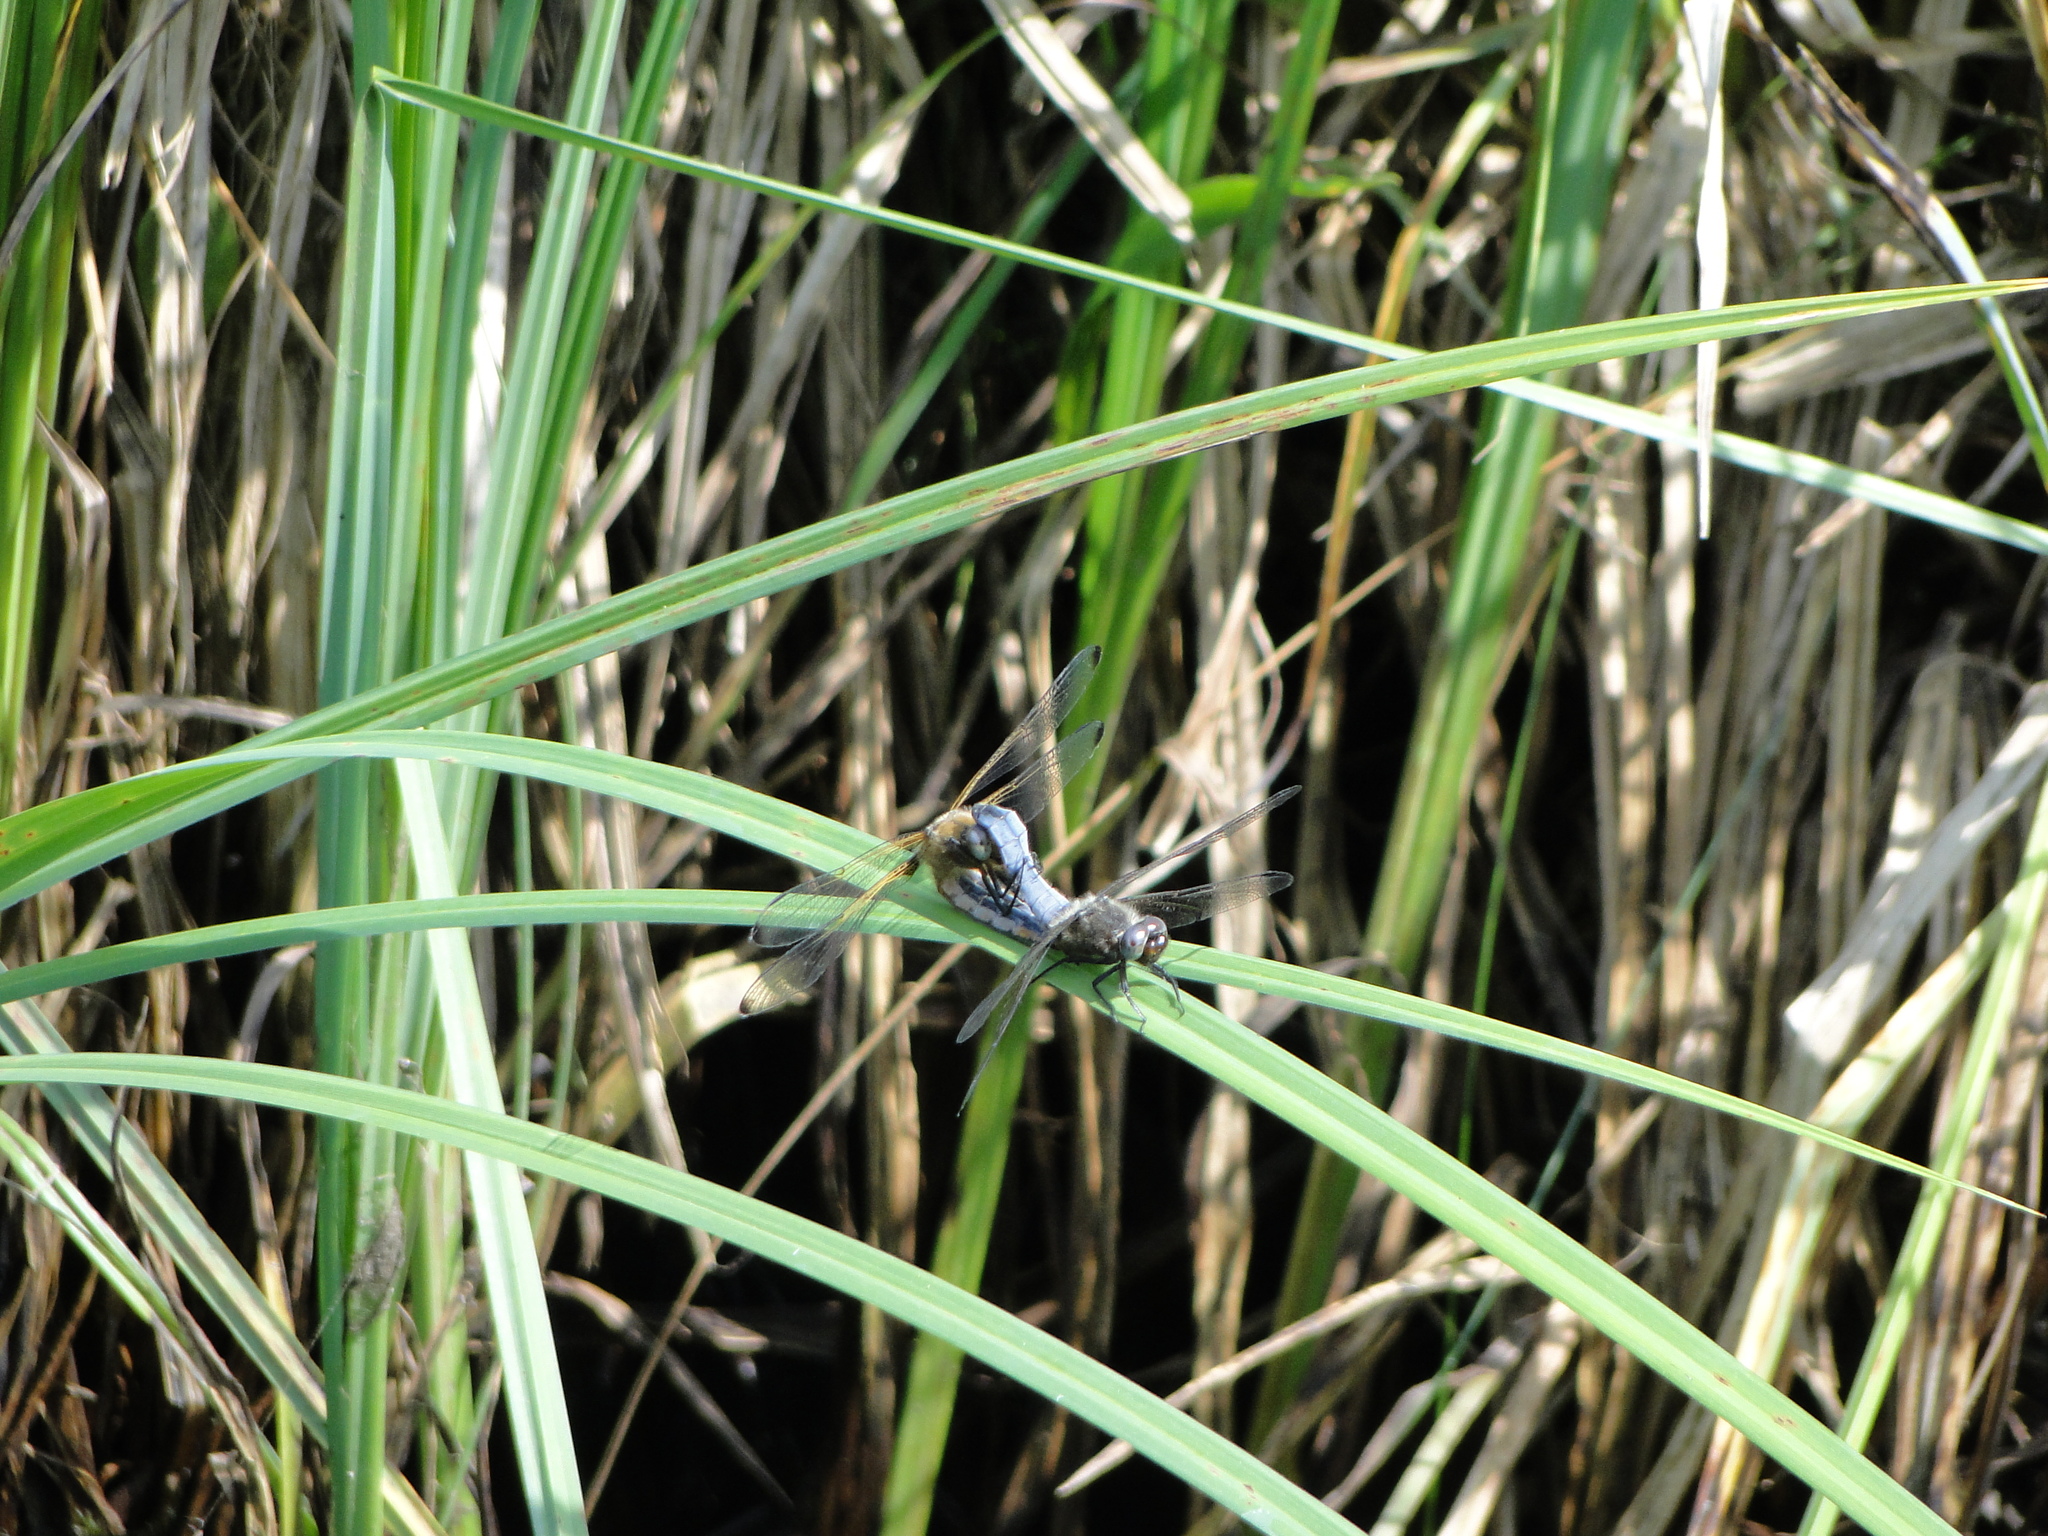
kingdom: Animalia
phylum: Arthropoda
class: Insecta
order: Odonata
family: Libellulidae
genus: Libellula
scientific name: Libellula fulva
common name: Blue chaser
